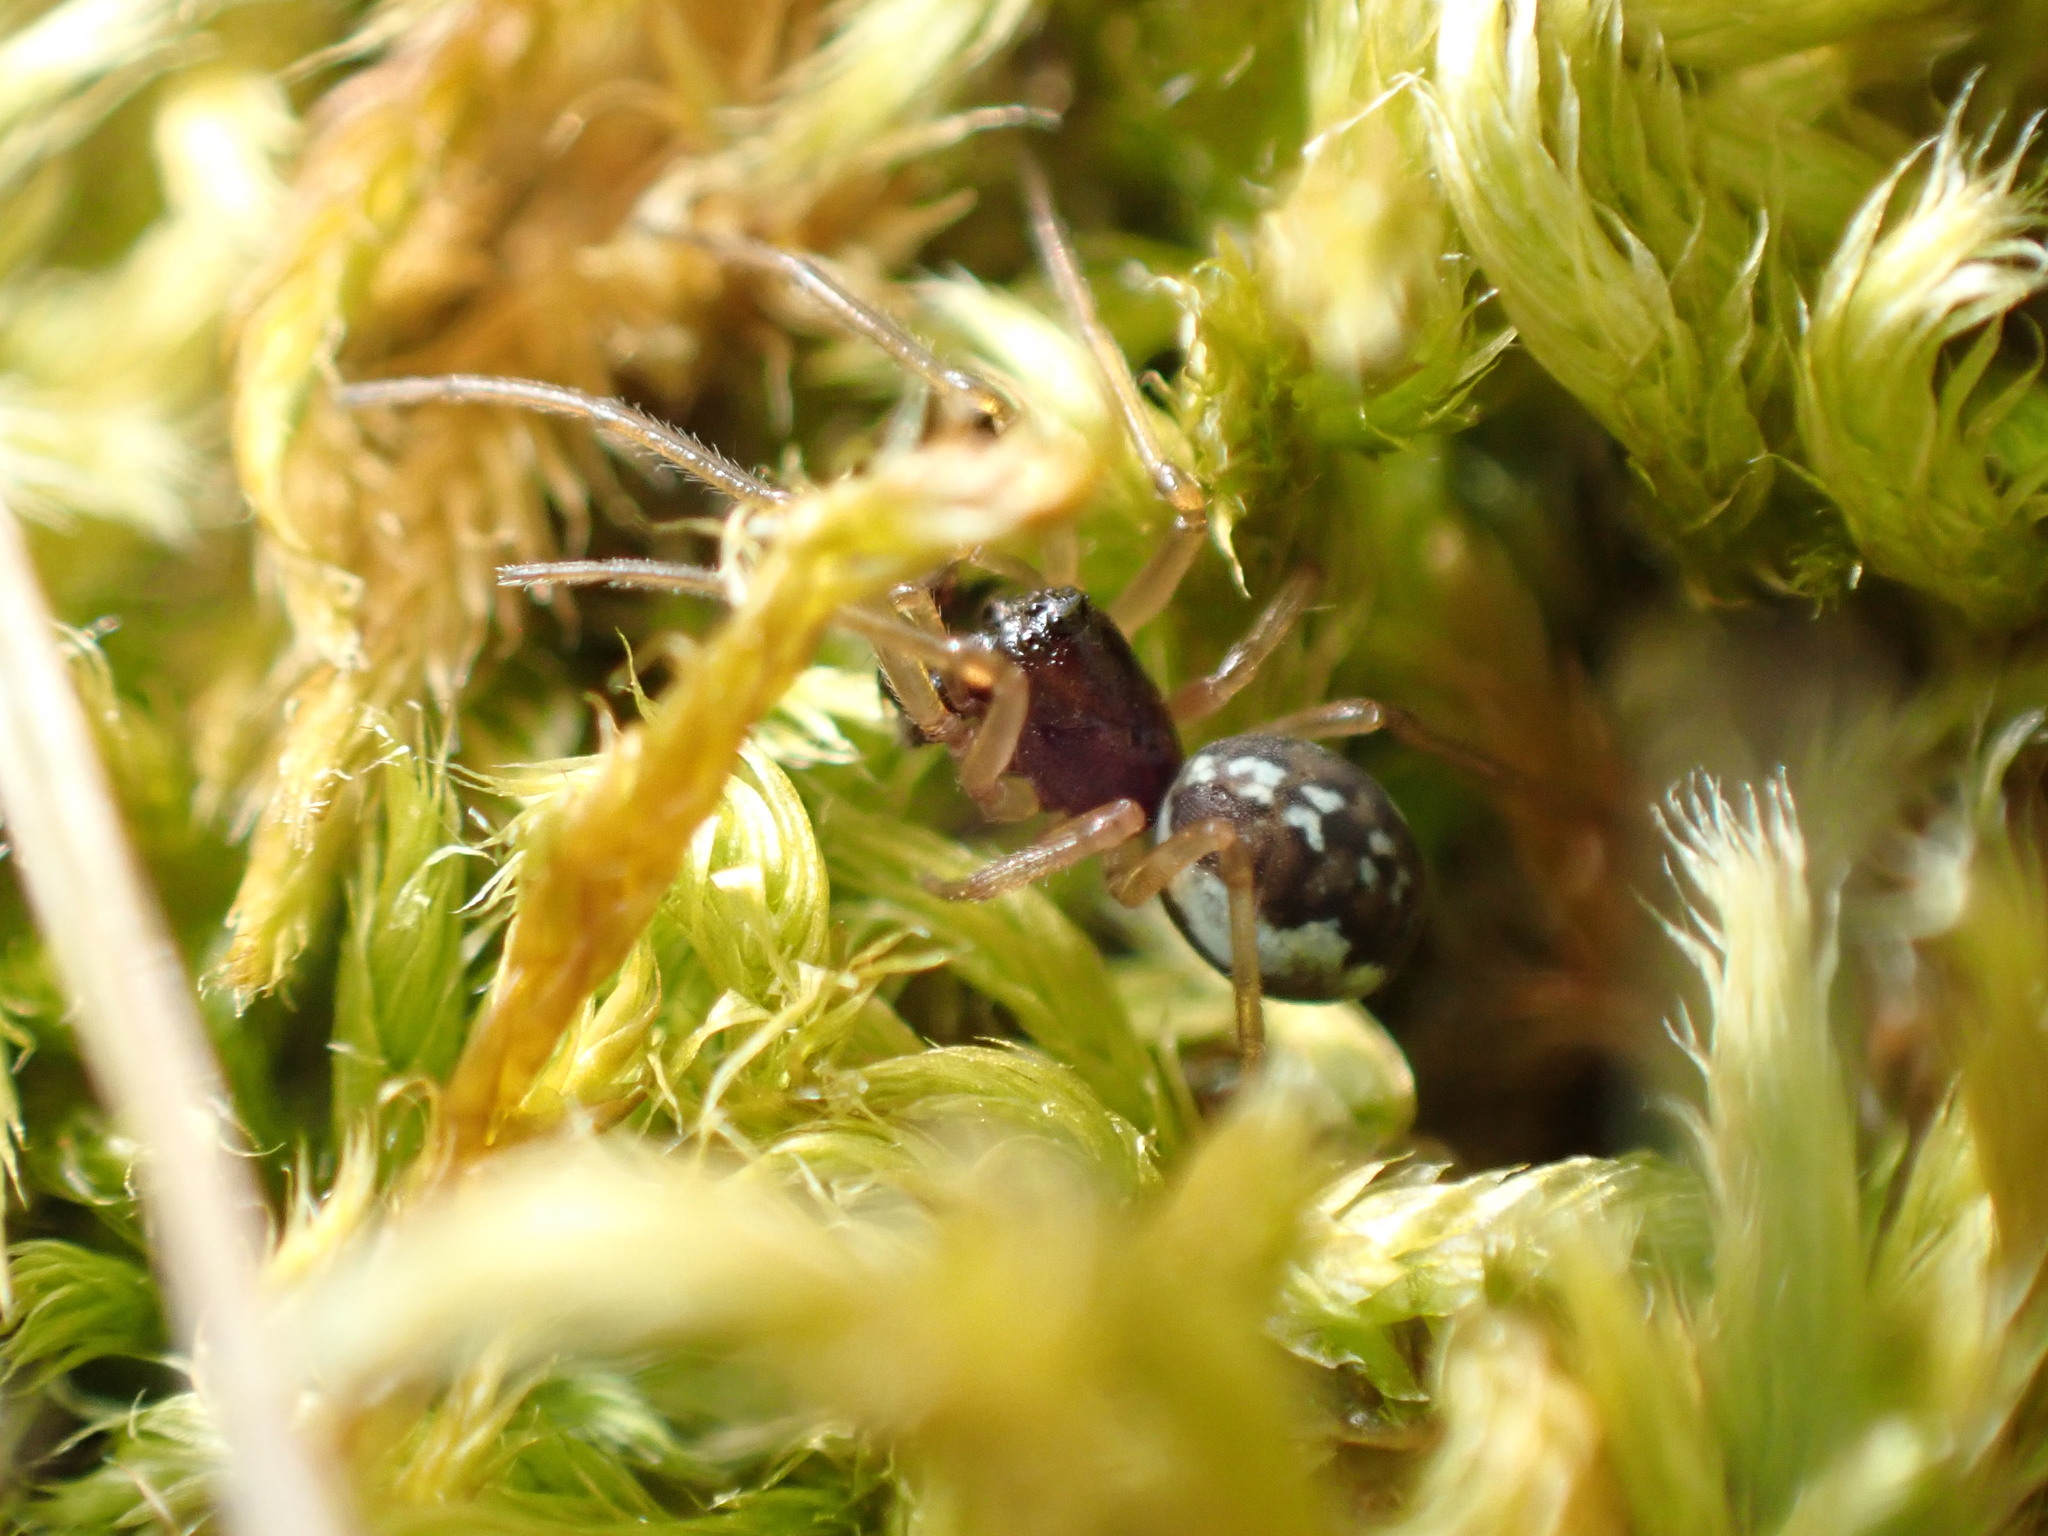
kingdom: Animalia
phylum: Arthropoda
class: Arachnida
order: Araneae
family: Tetragnathidae
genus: Pachygnatha
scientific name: Pachygnatha degeeri
